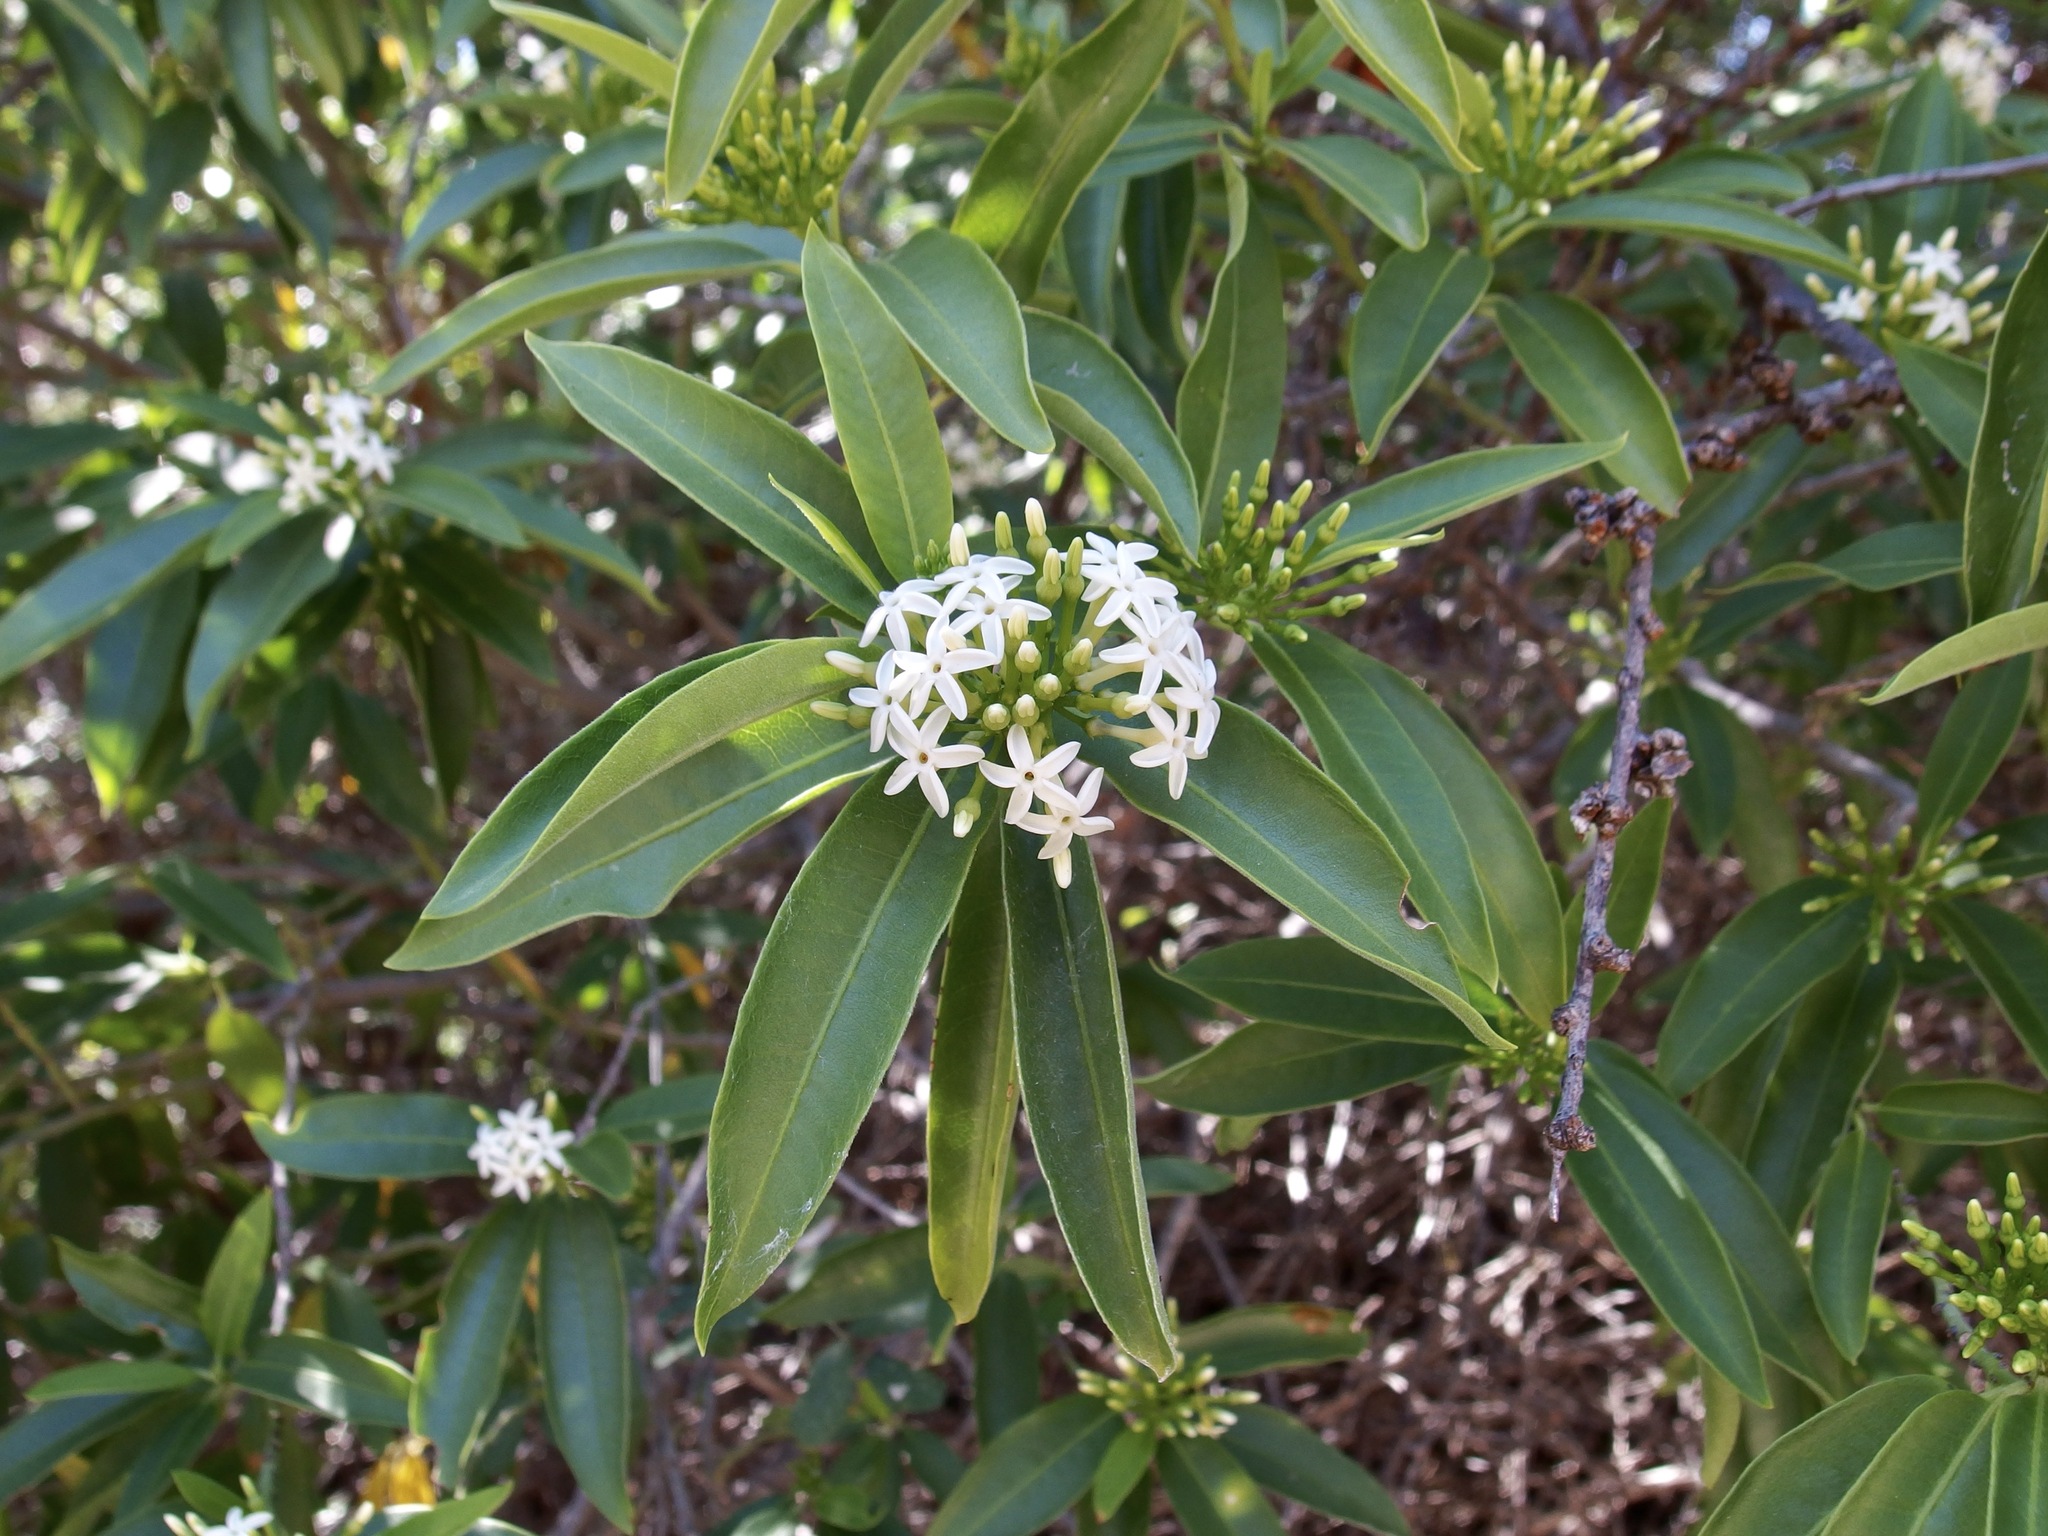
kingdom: Plantae
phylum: Tracheophyta
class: Magnoliopsida
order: Gentianales
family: Apocynaceae
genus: Vallesia
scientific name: Vallesia laciniata
